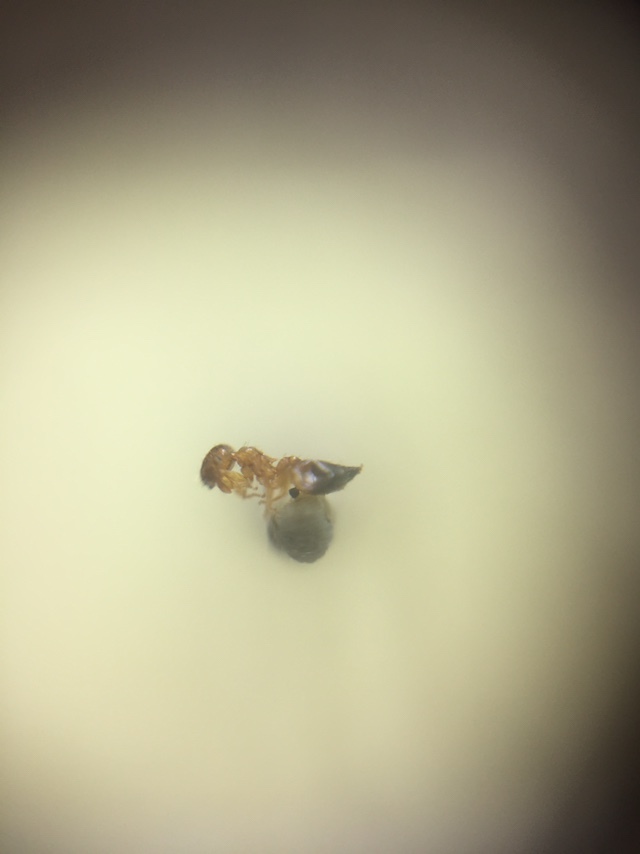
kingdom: Animalia
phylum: Arthropoda
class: Insecta
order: Hymenoptera
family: Formicidae
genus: Crematogaster
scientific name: Crematogaster biroi
